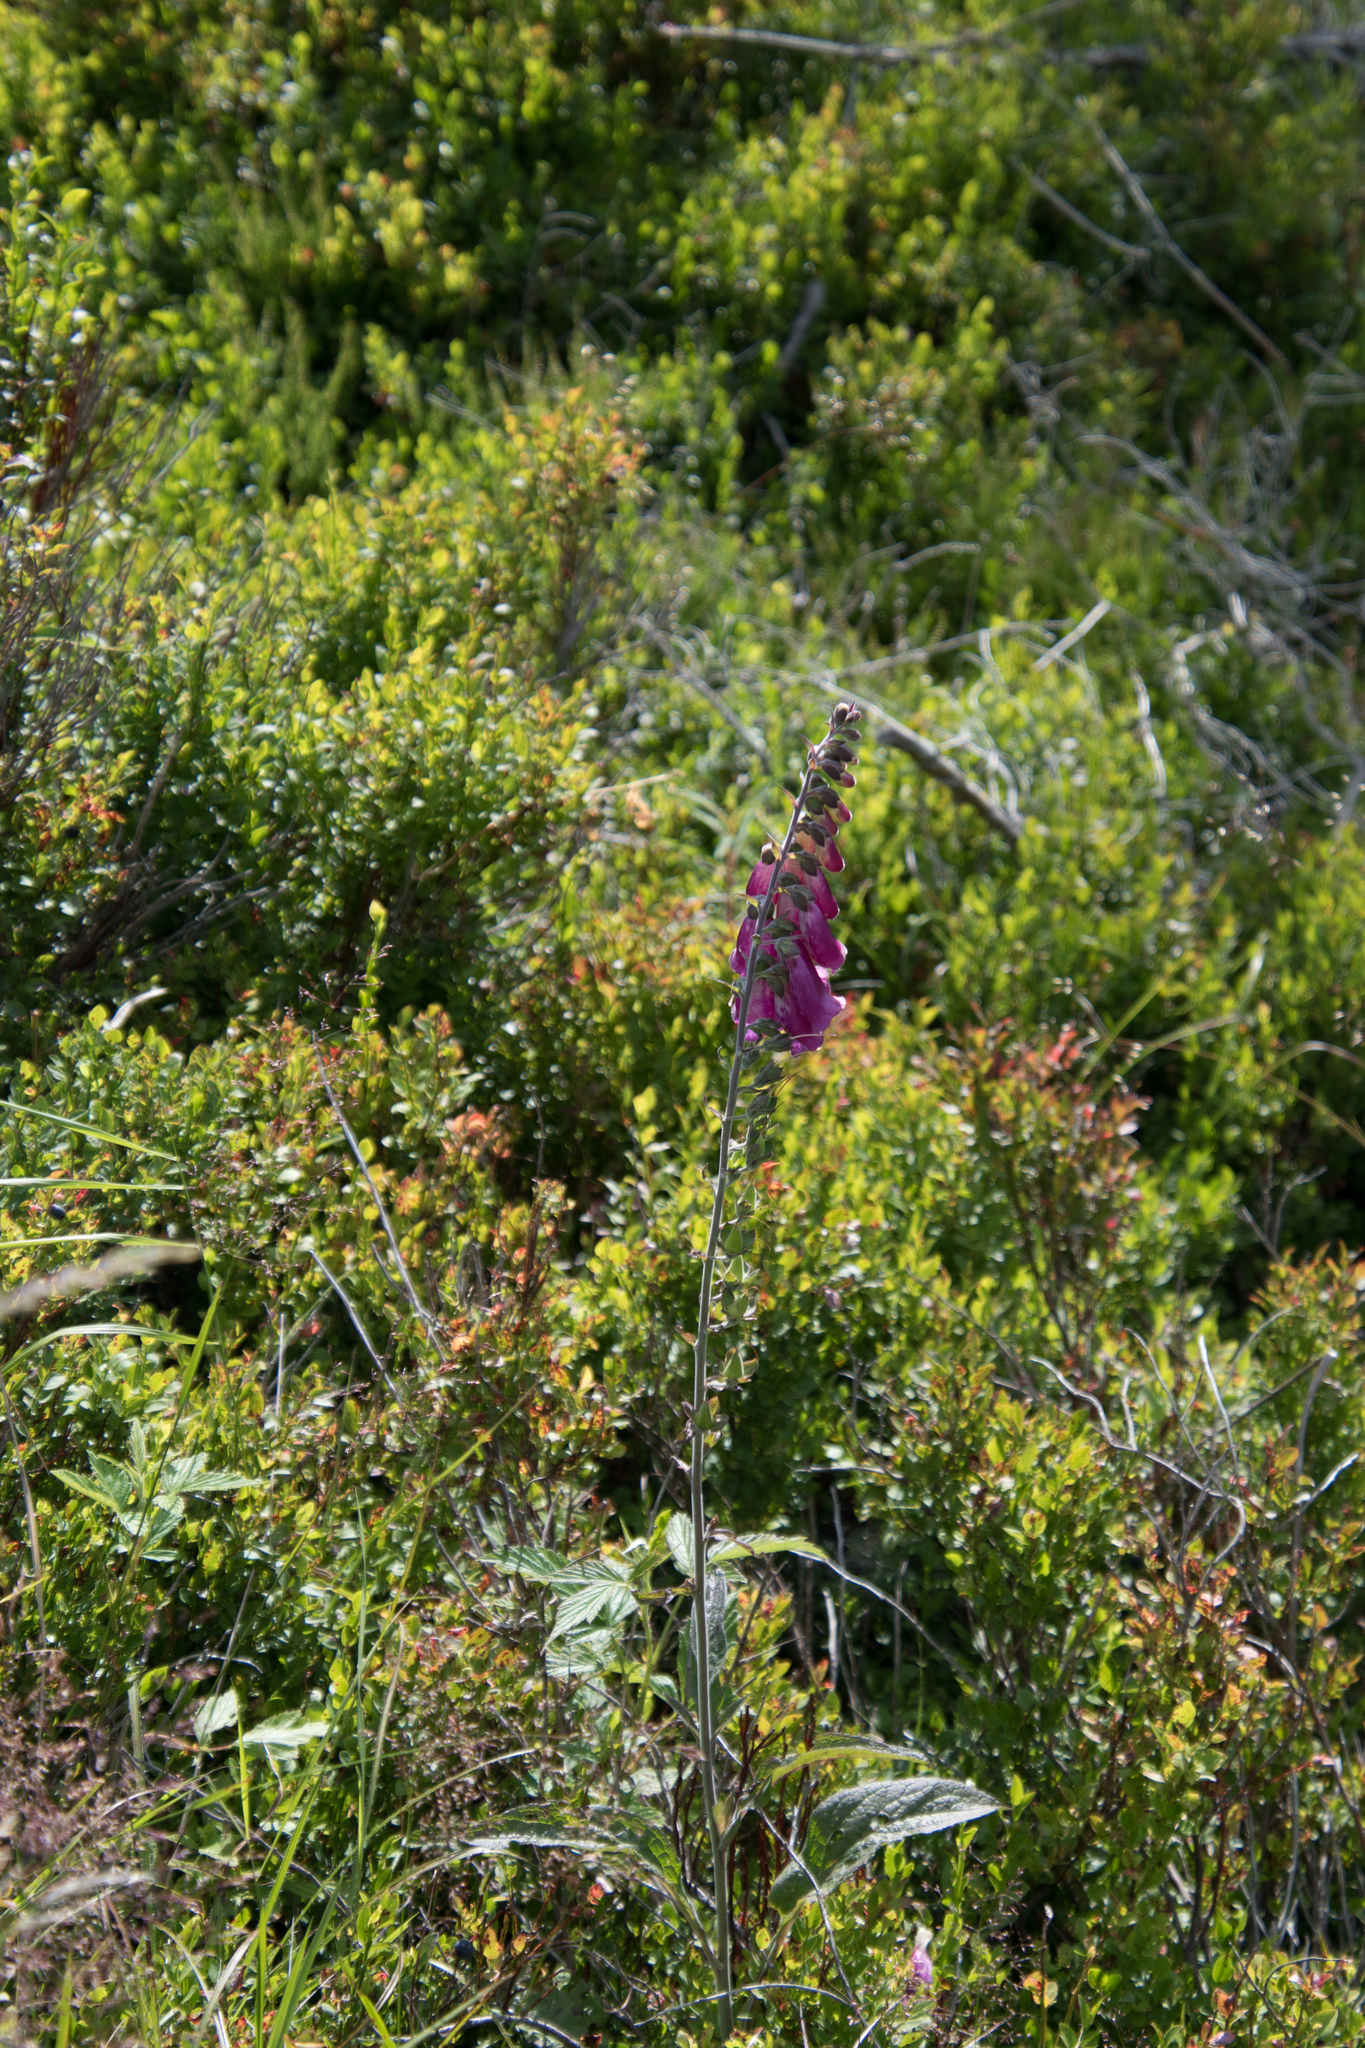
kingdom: Plantae
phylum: Tracheophyta
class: Magnoliopsida
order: Lamiales
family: Plantaginaceae
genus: Digitalis
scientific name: Digitalis purpurea
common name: Foxglove
